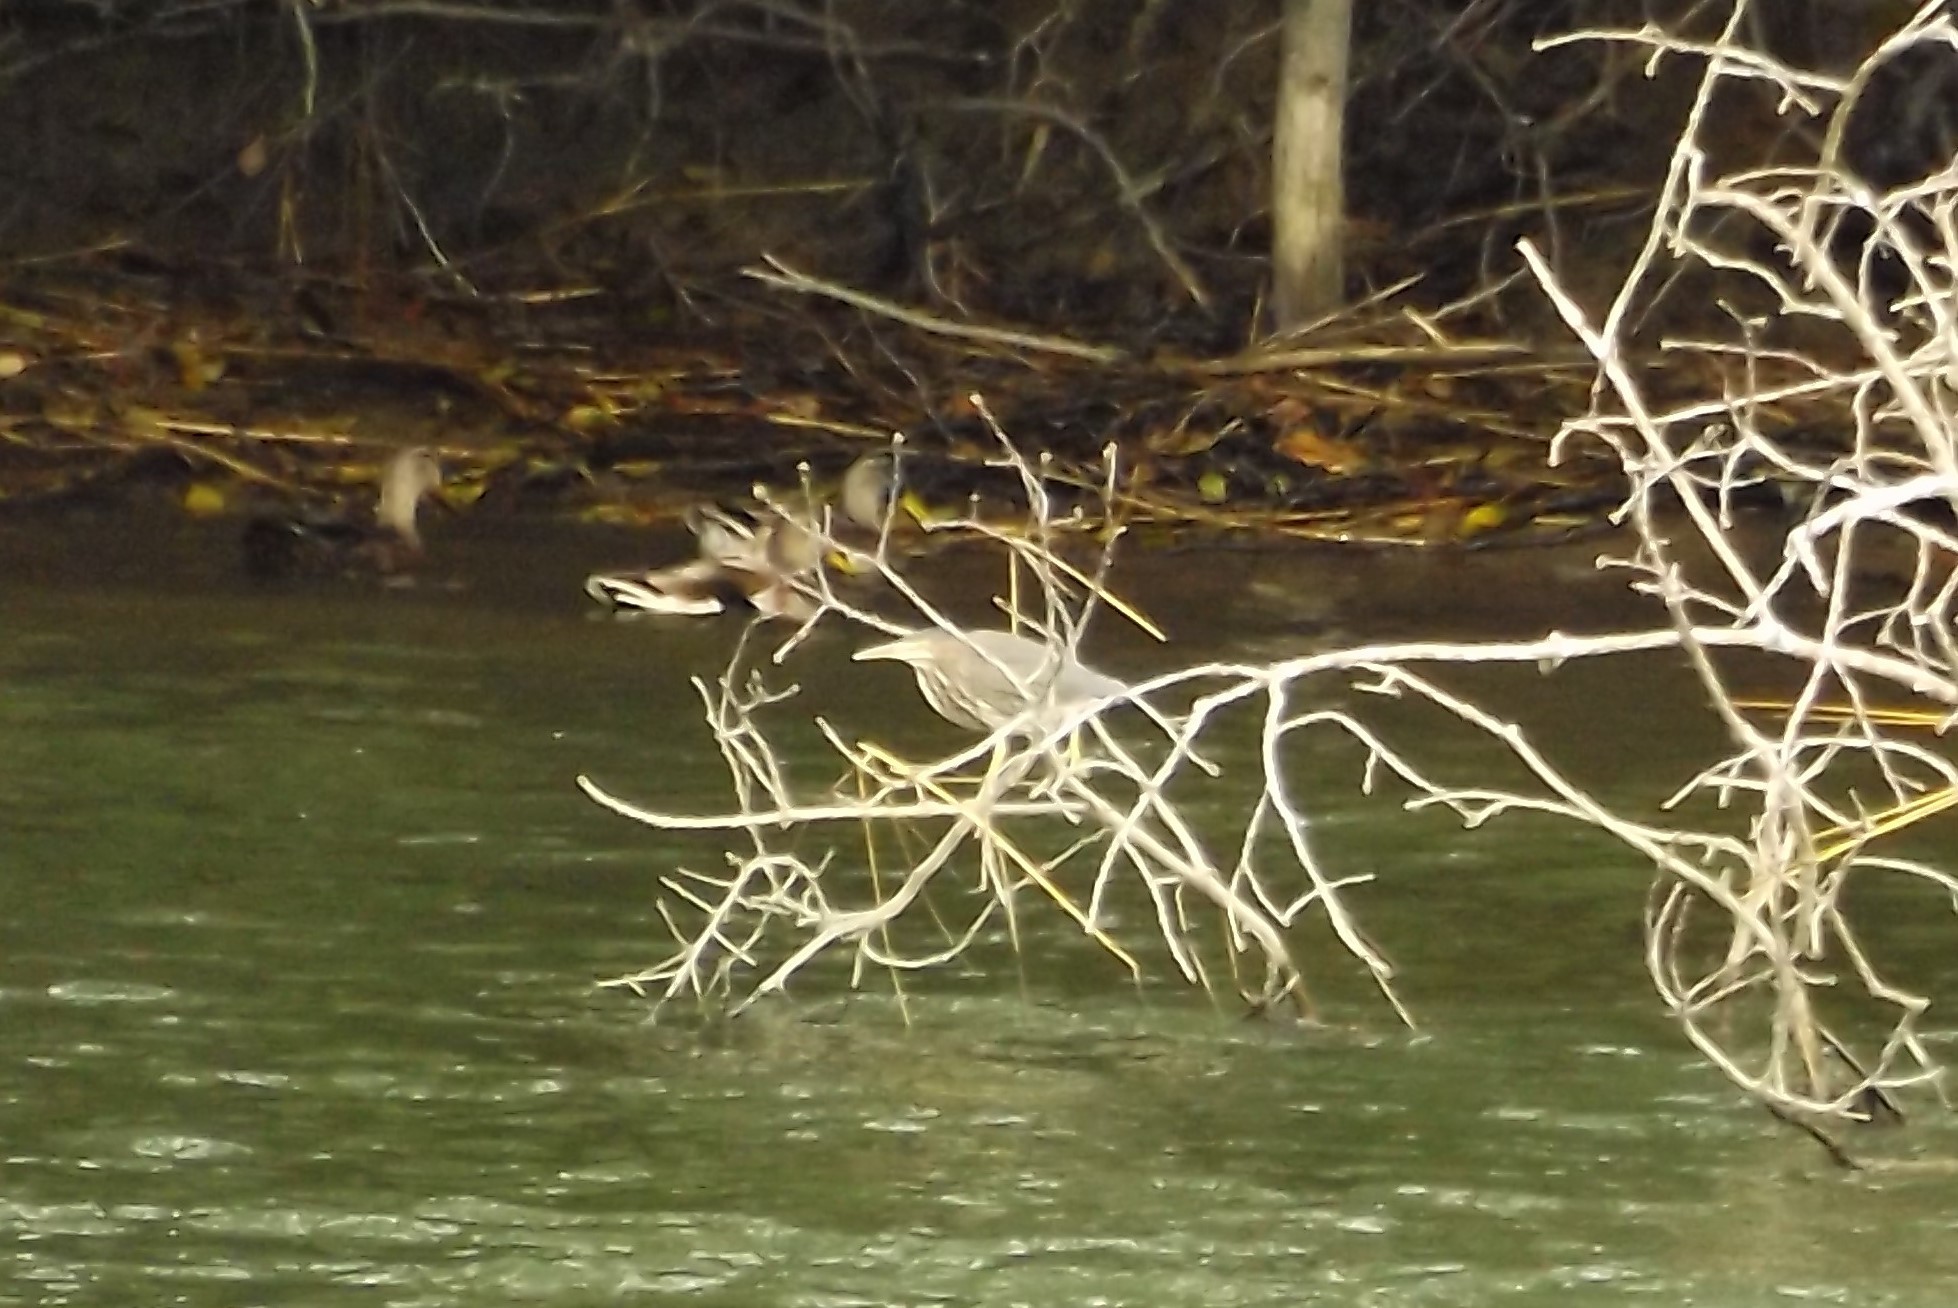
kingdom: Animalia
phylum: Chordata
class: Aves
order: Pelecaniformes
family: Ardeidae
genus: Butorides
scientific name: Butorides virescens
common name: Green heron
